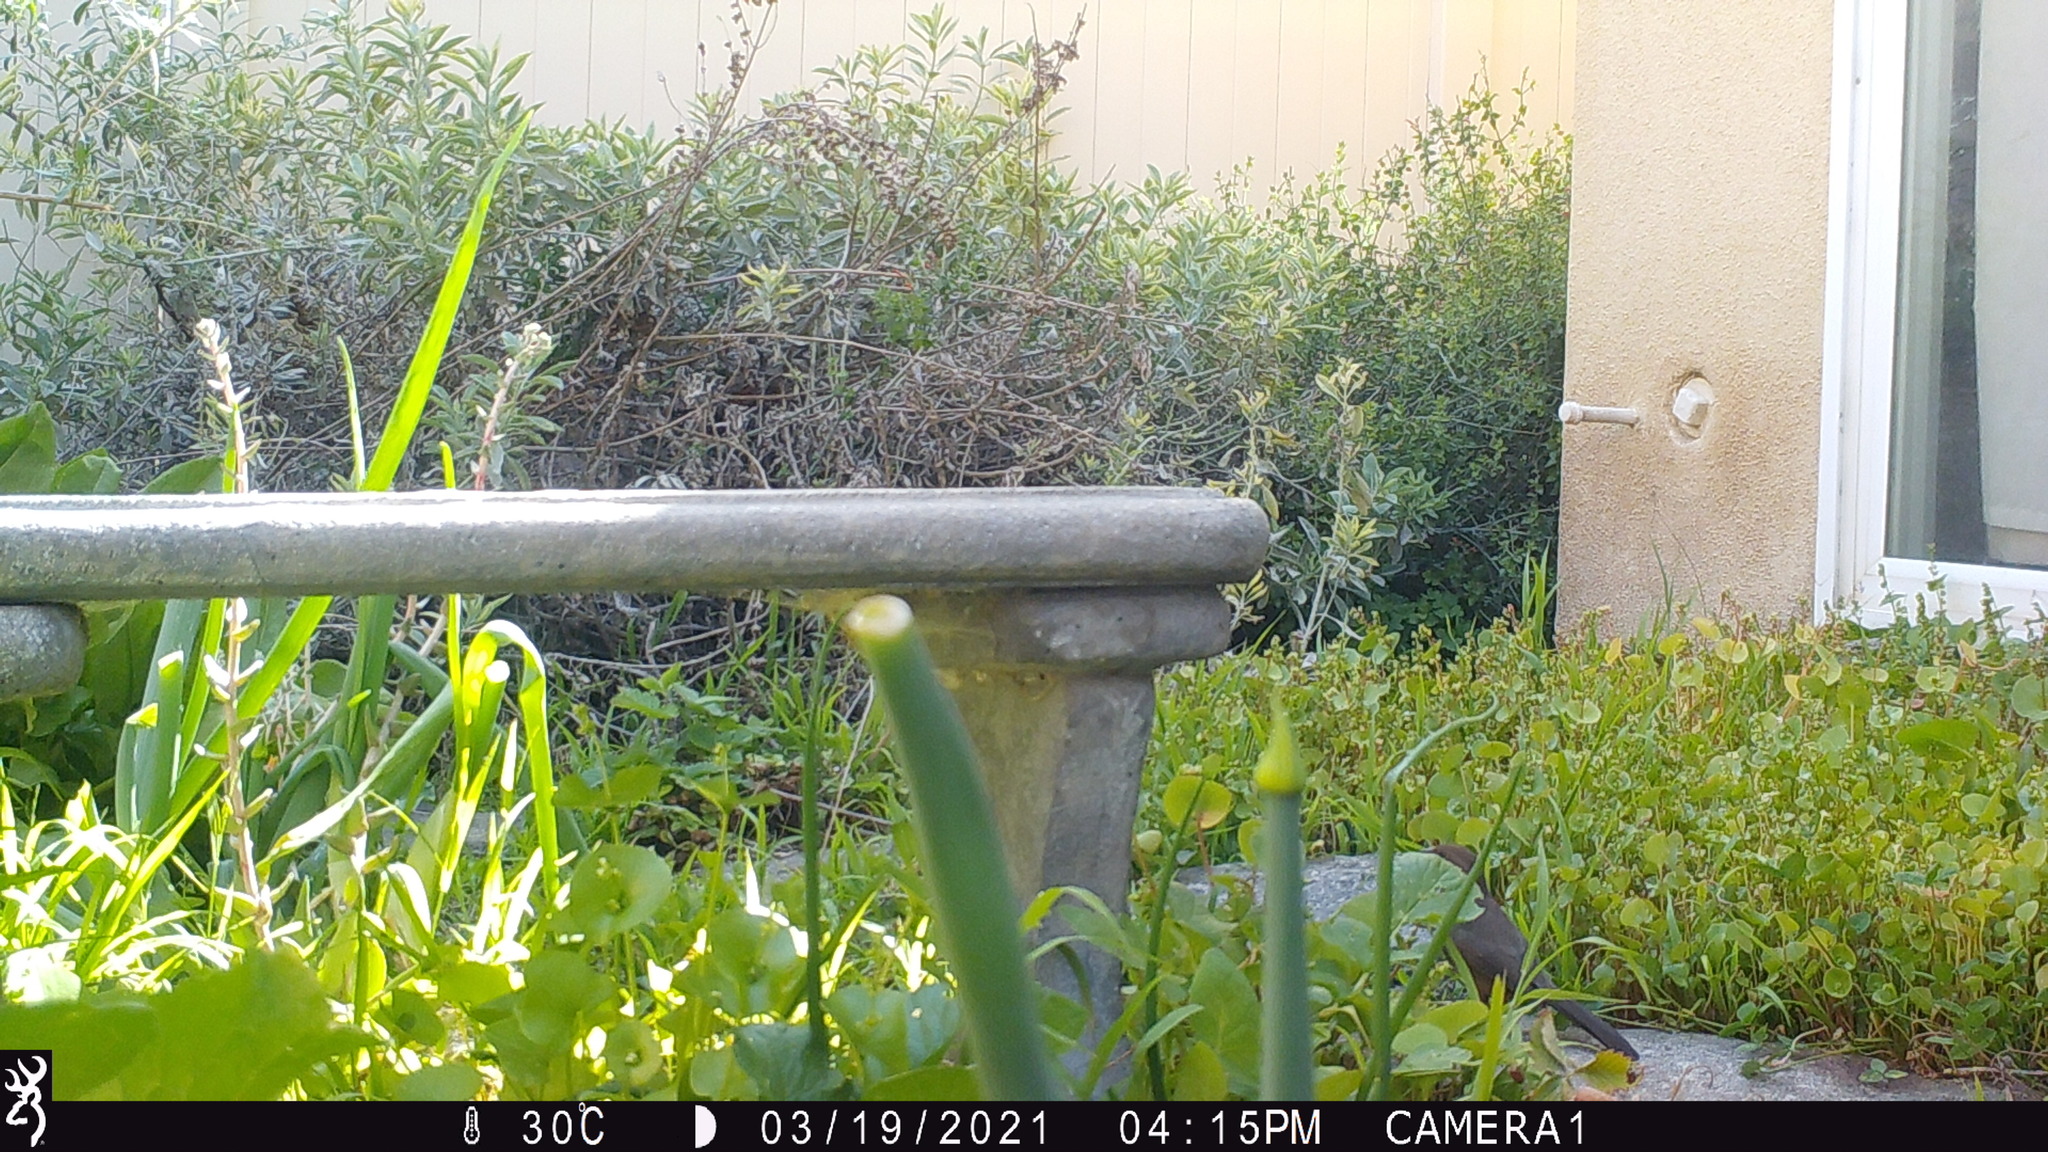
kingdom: Animalia
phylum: Chordata
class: Aves
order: Passeriformes
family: Passerellidae
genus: Melozone
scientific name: Melozone crissalis
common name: California towhee
